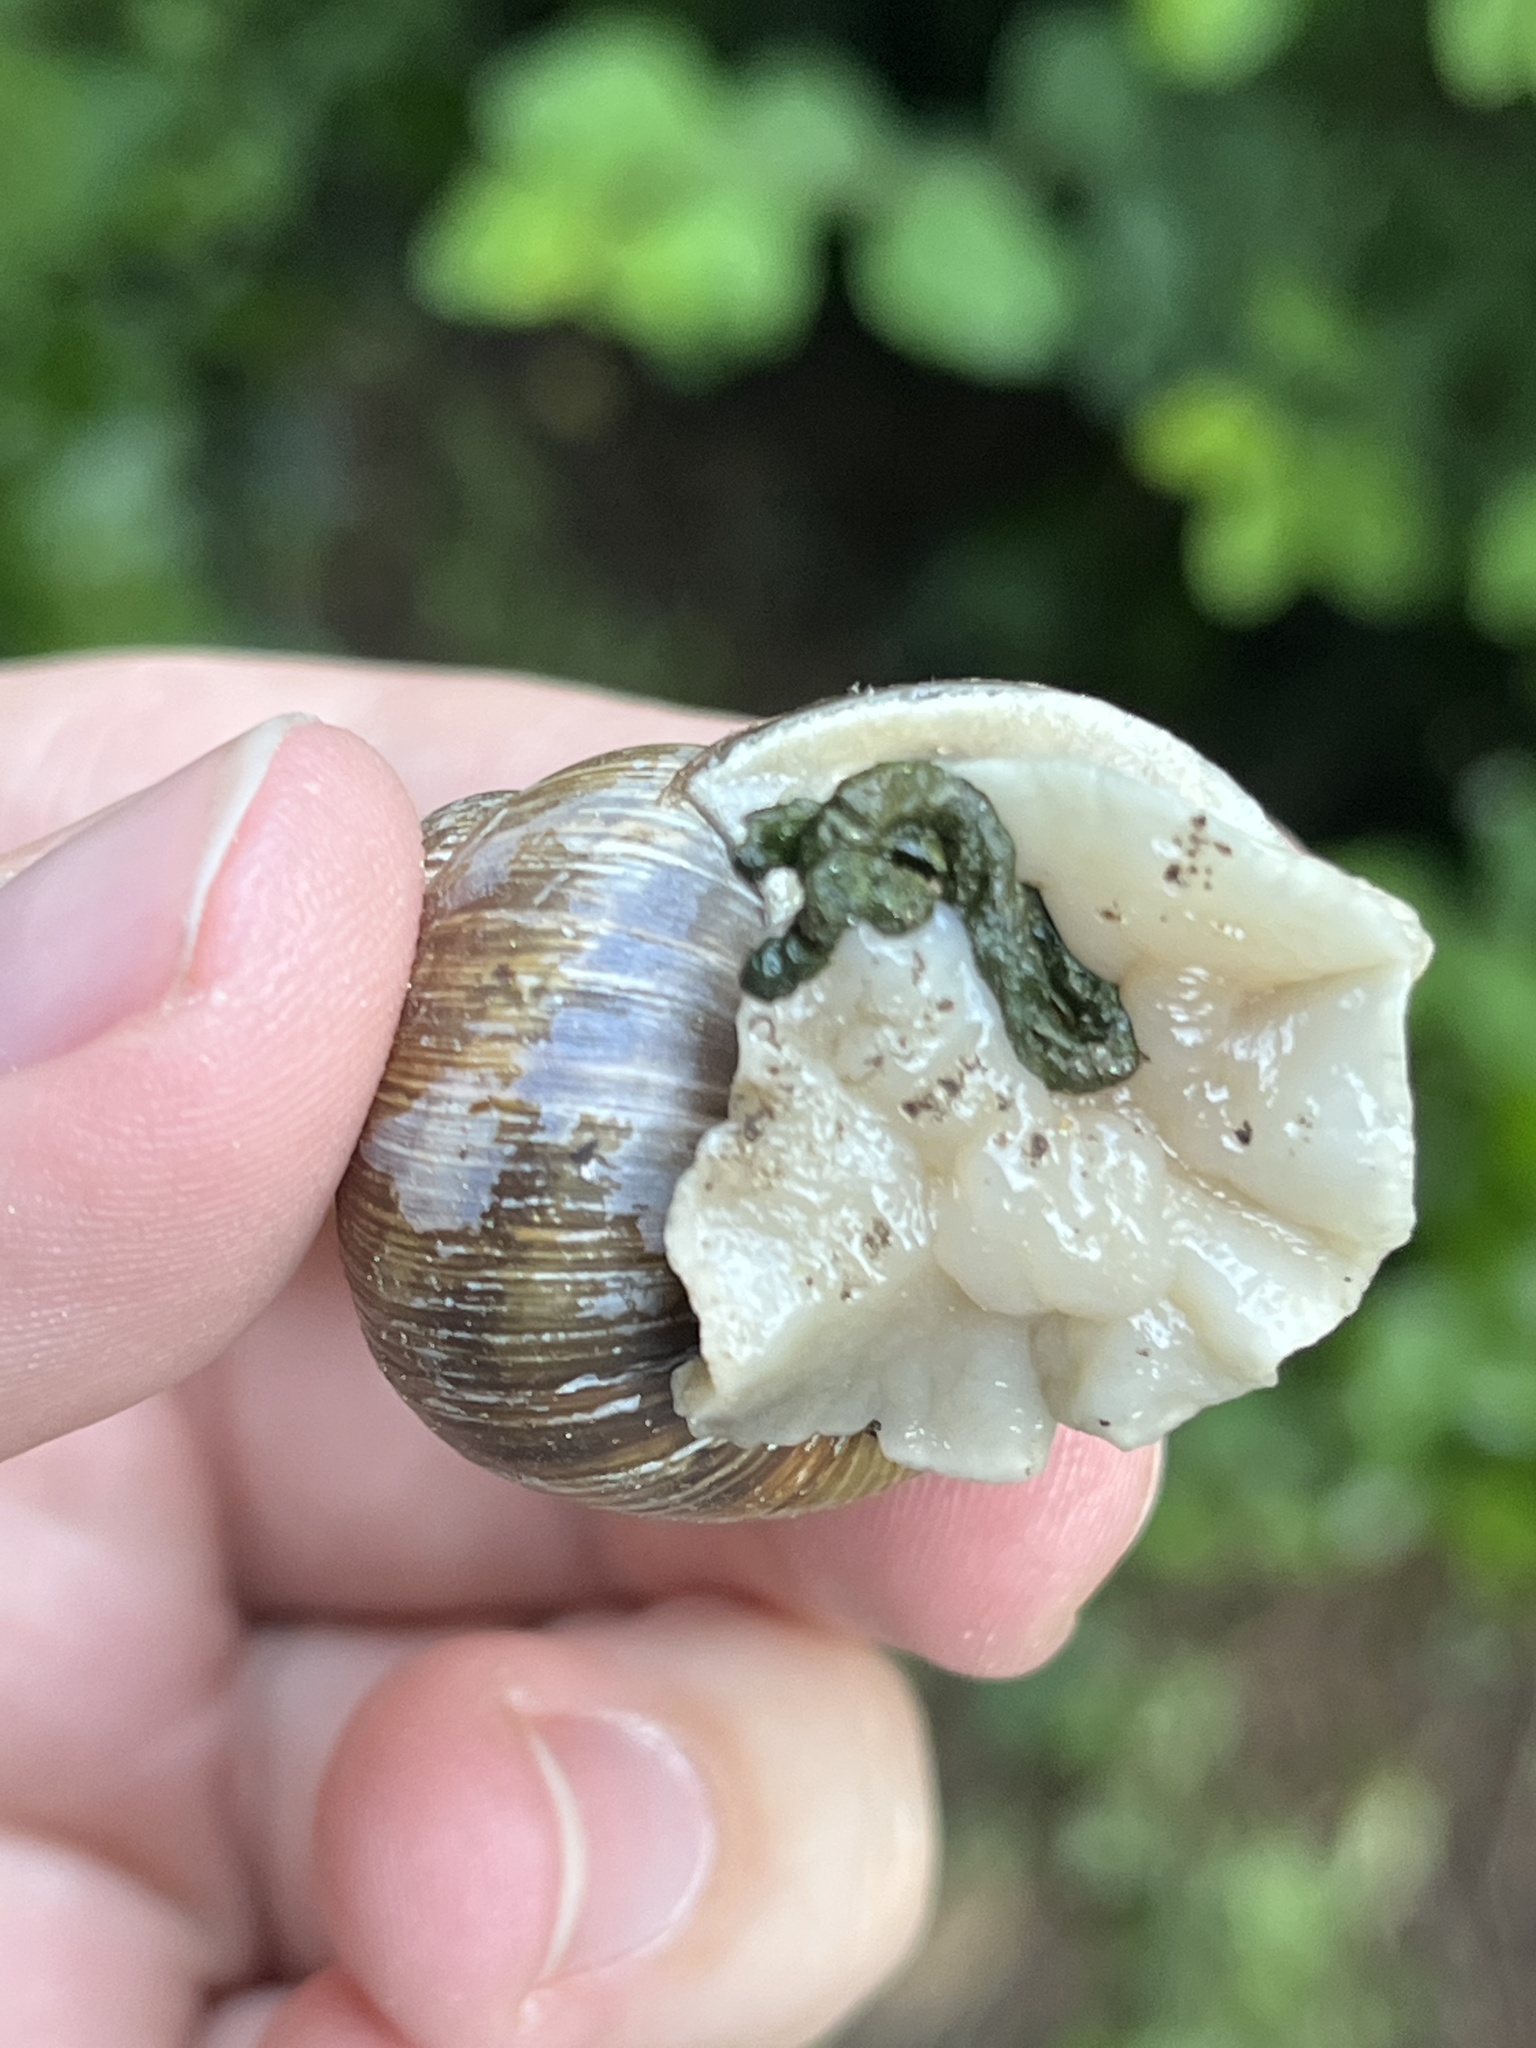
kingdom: Animalia
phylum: Mollusca
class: Gastropoda
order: Stylommatophora
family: Helicidae
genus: Helix
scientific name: Helix pomatia
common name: Roman snail
